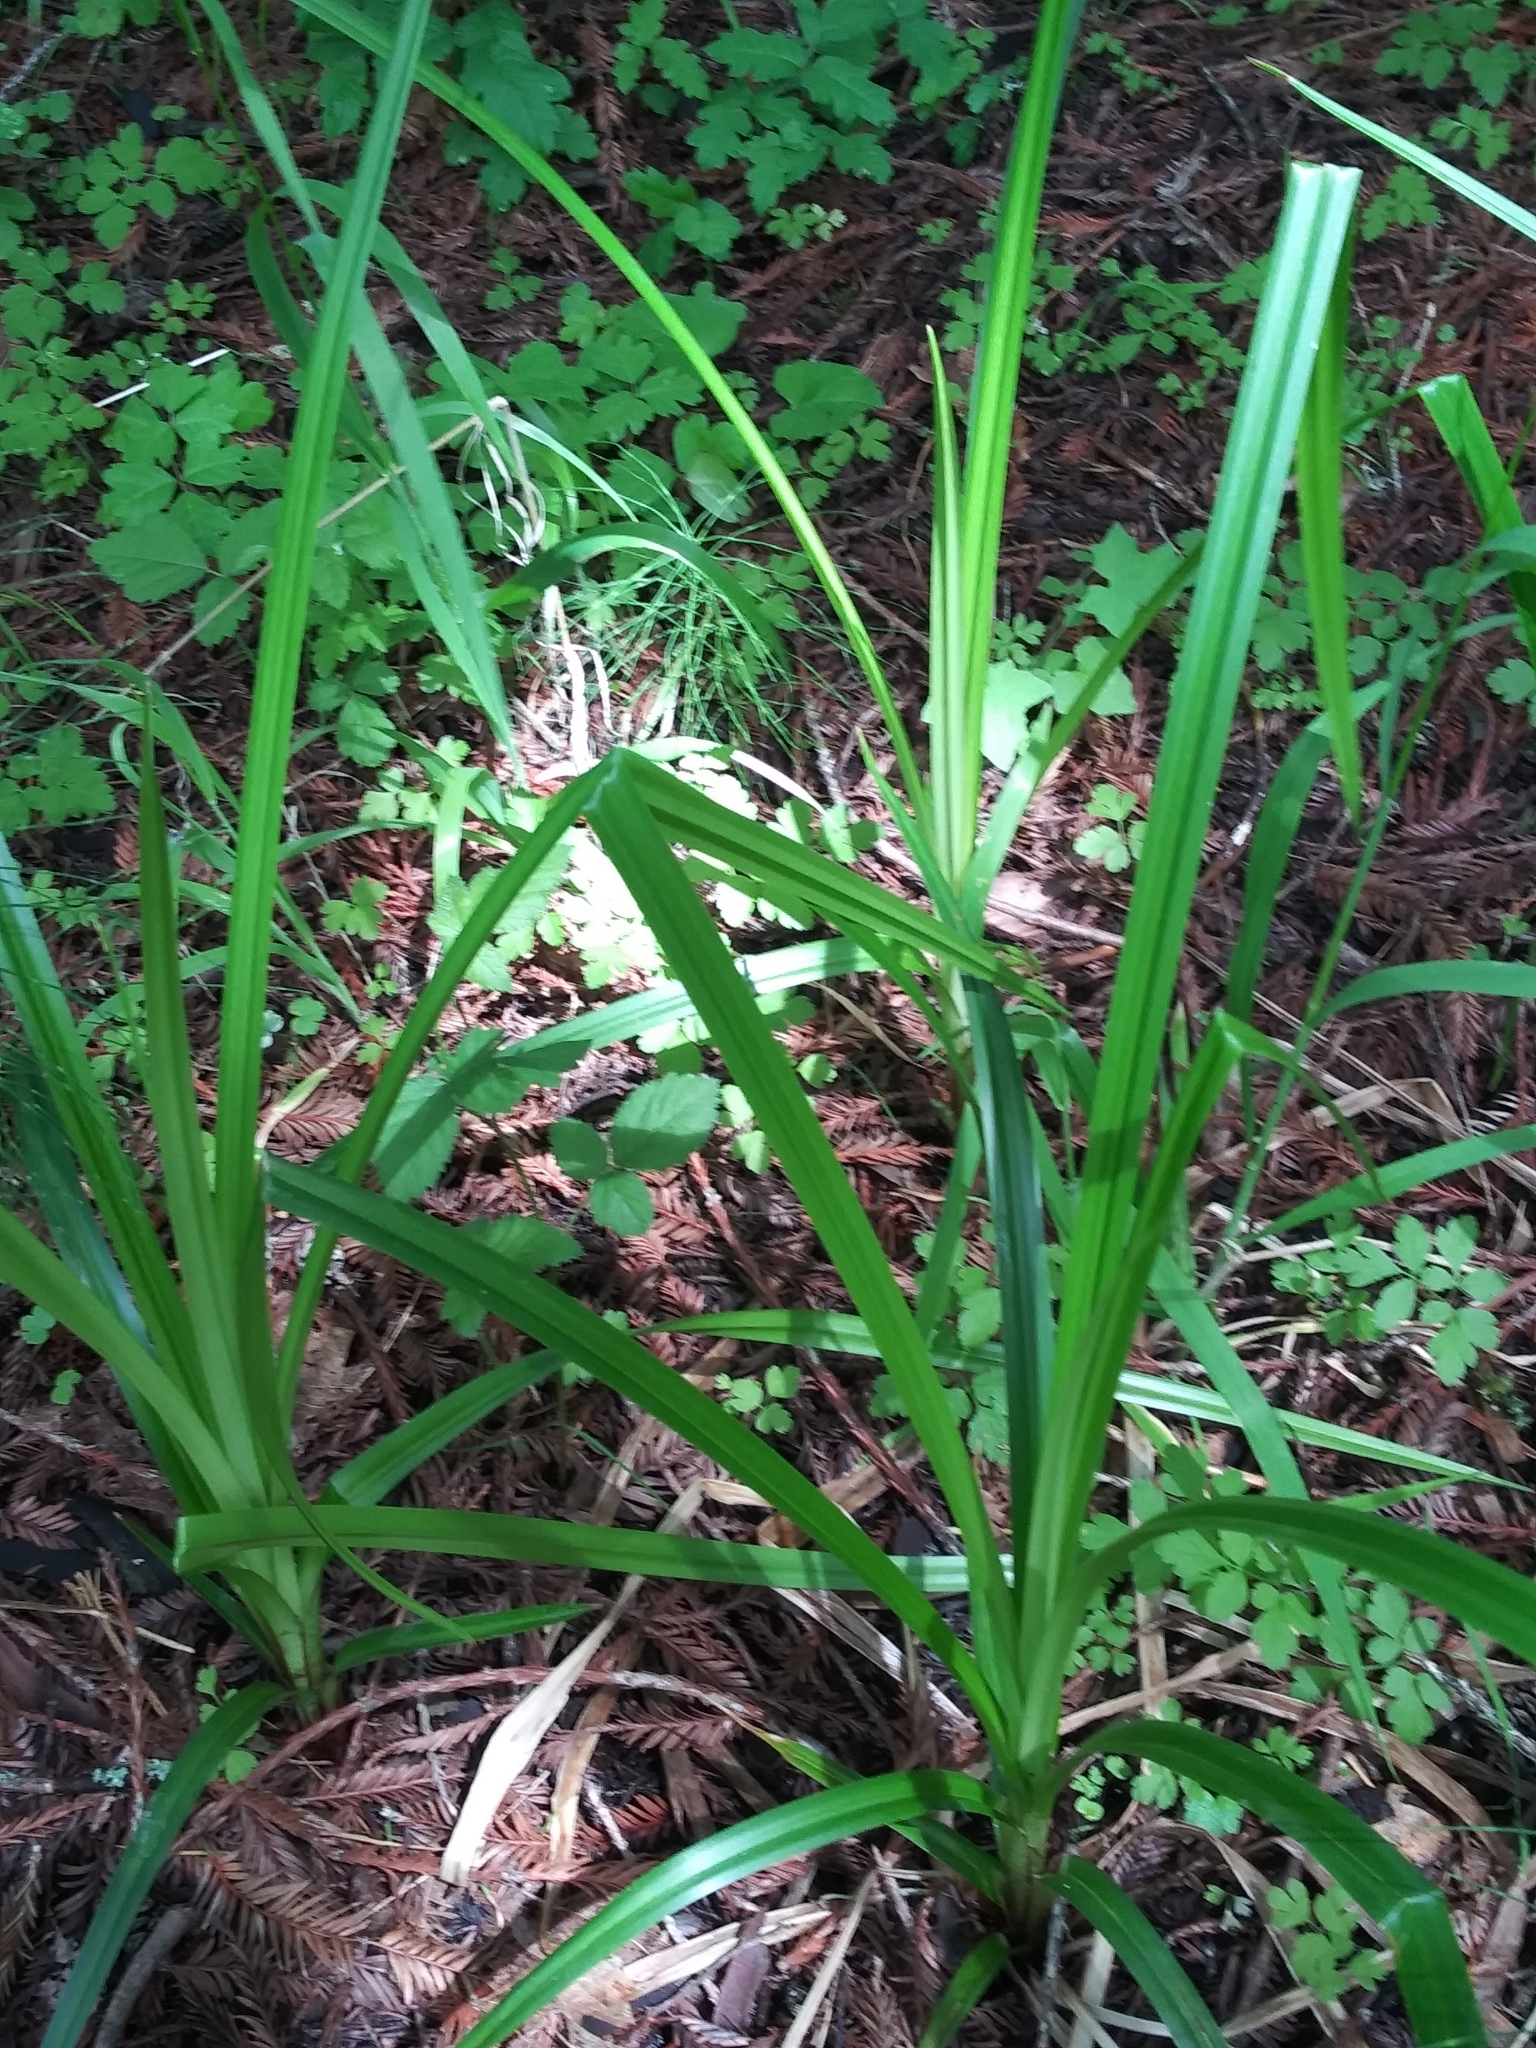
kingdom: Plantae
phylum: Tracheophyta
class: Liliopsida
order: Poales
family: Cyperaceae
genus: Carex
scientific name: Carex obnupta
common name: Slough sedge
